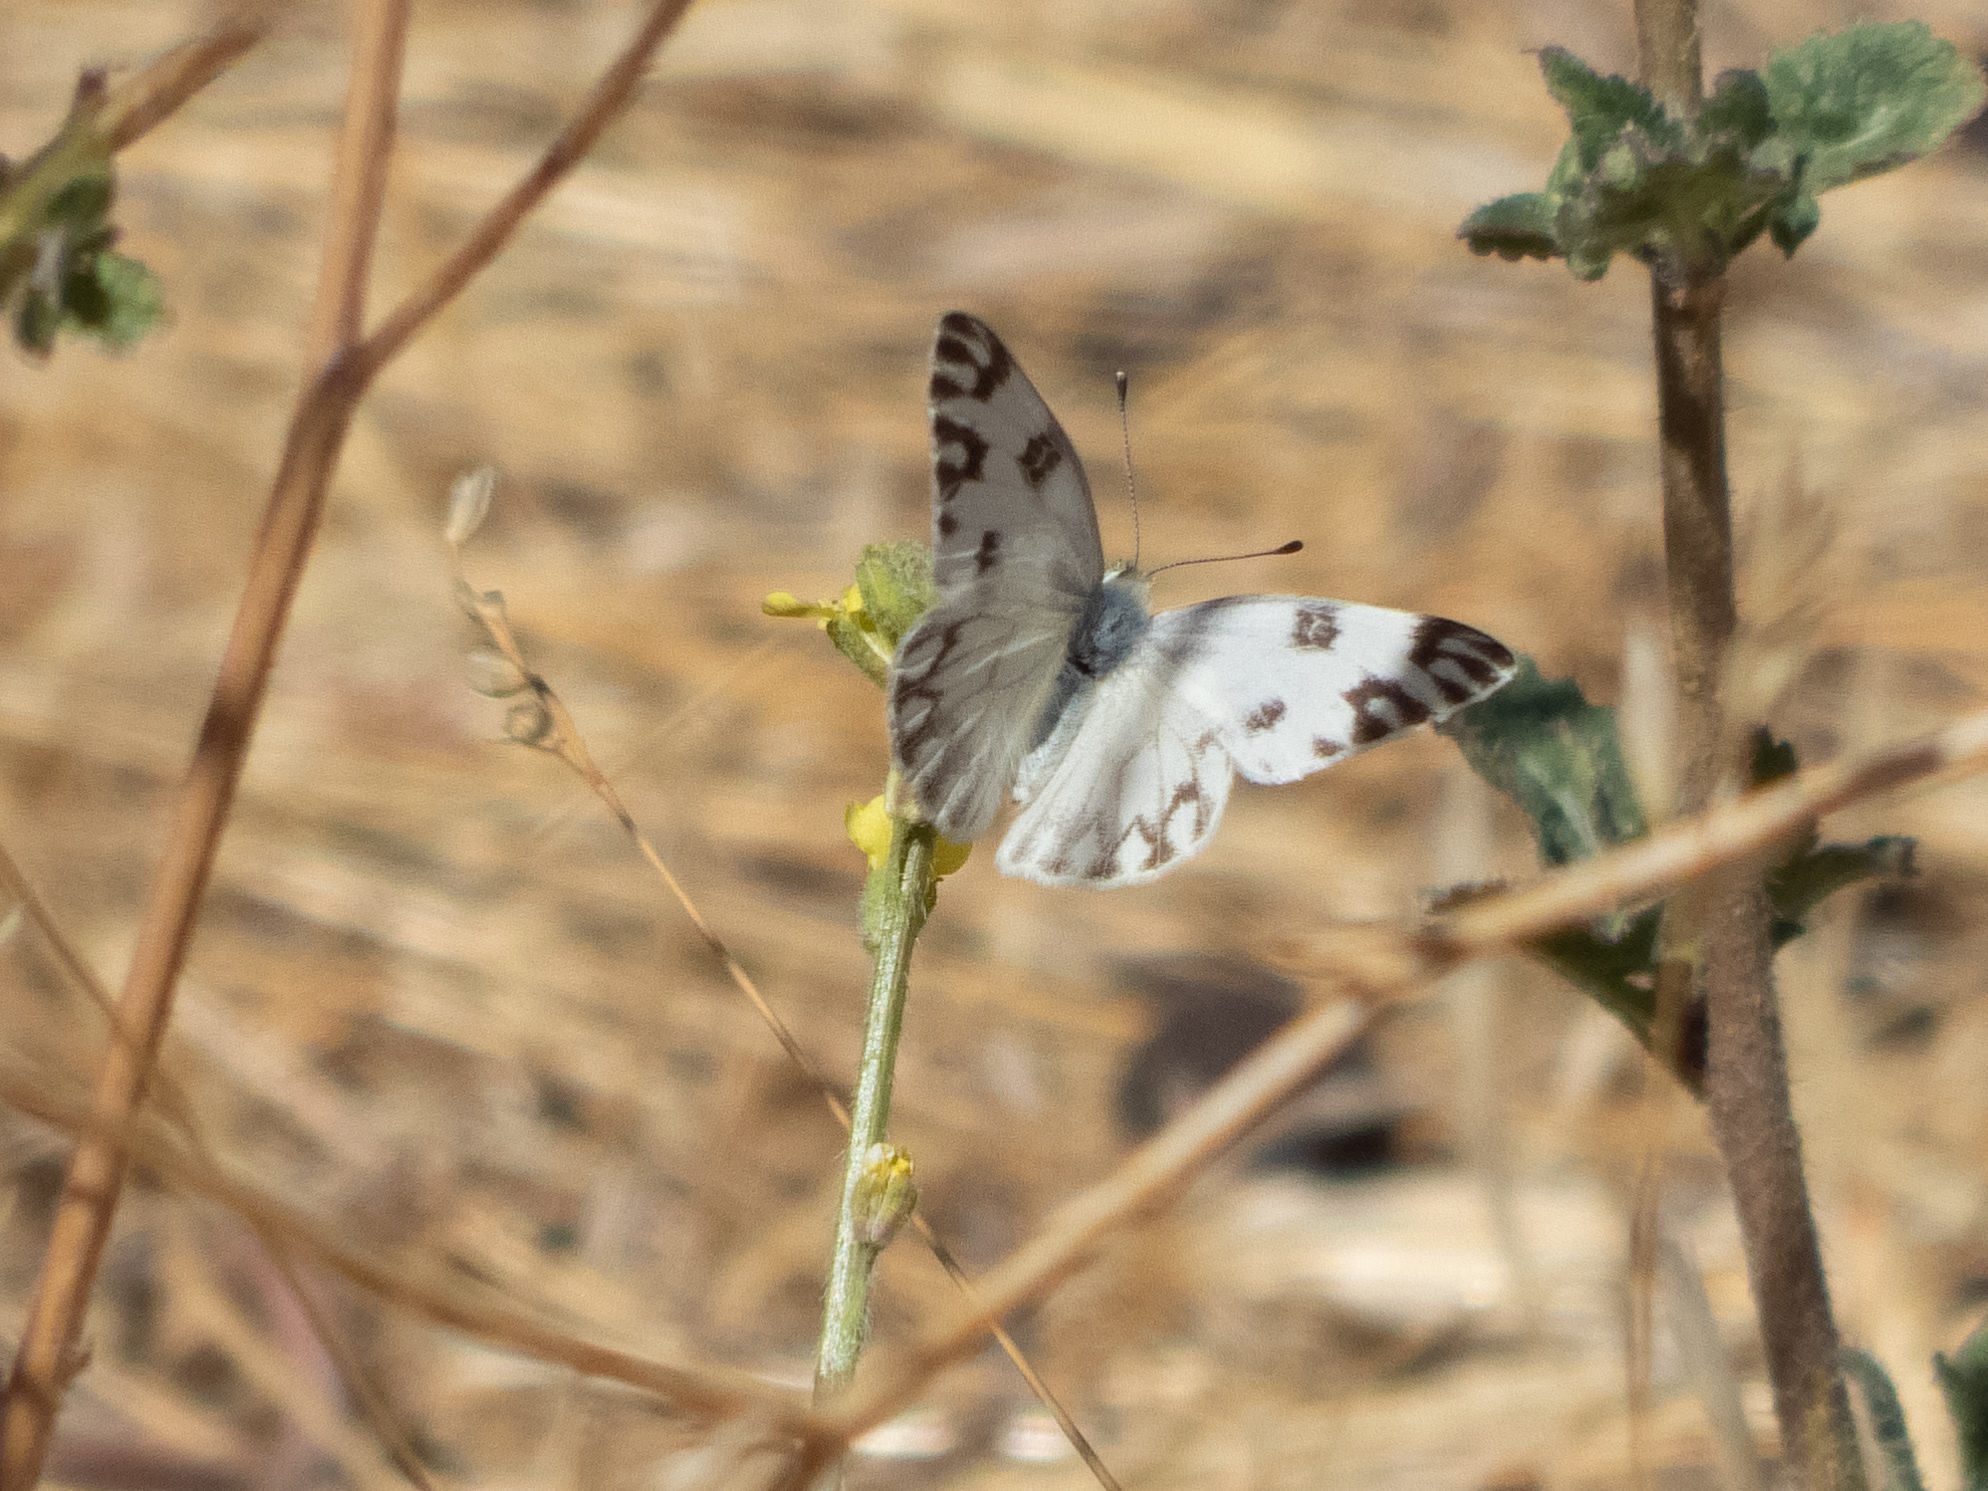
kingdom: Animalia
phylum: Arthropoda
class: Insecta
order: Lepidoptera
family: Pieridae
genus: Pontia
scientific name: Pontia protodice
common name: Checkered white
